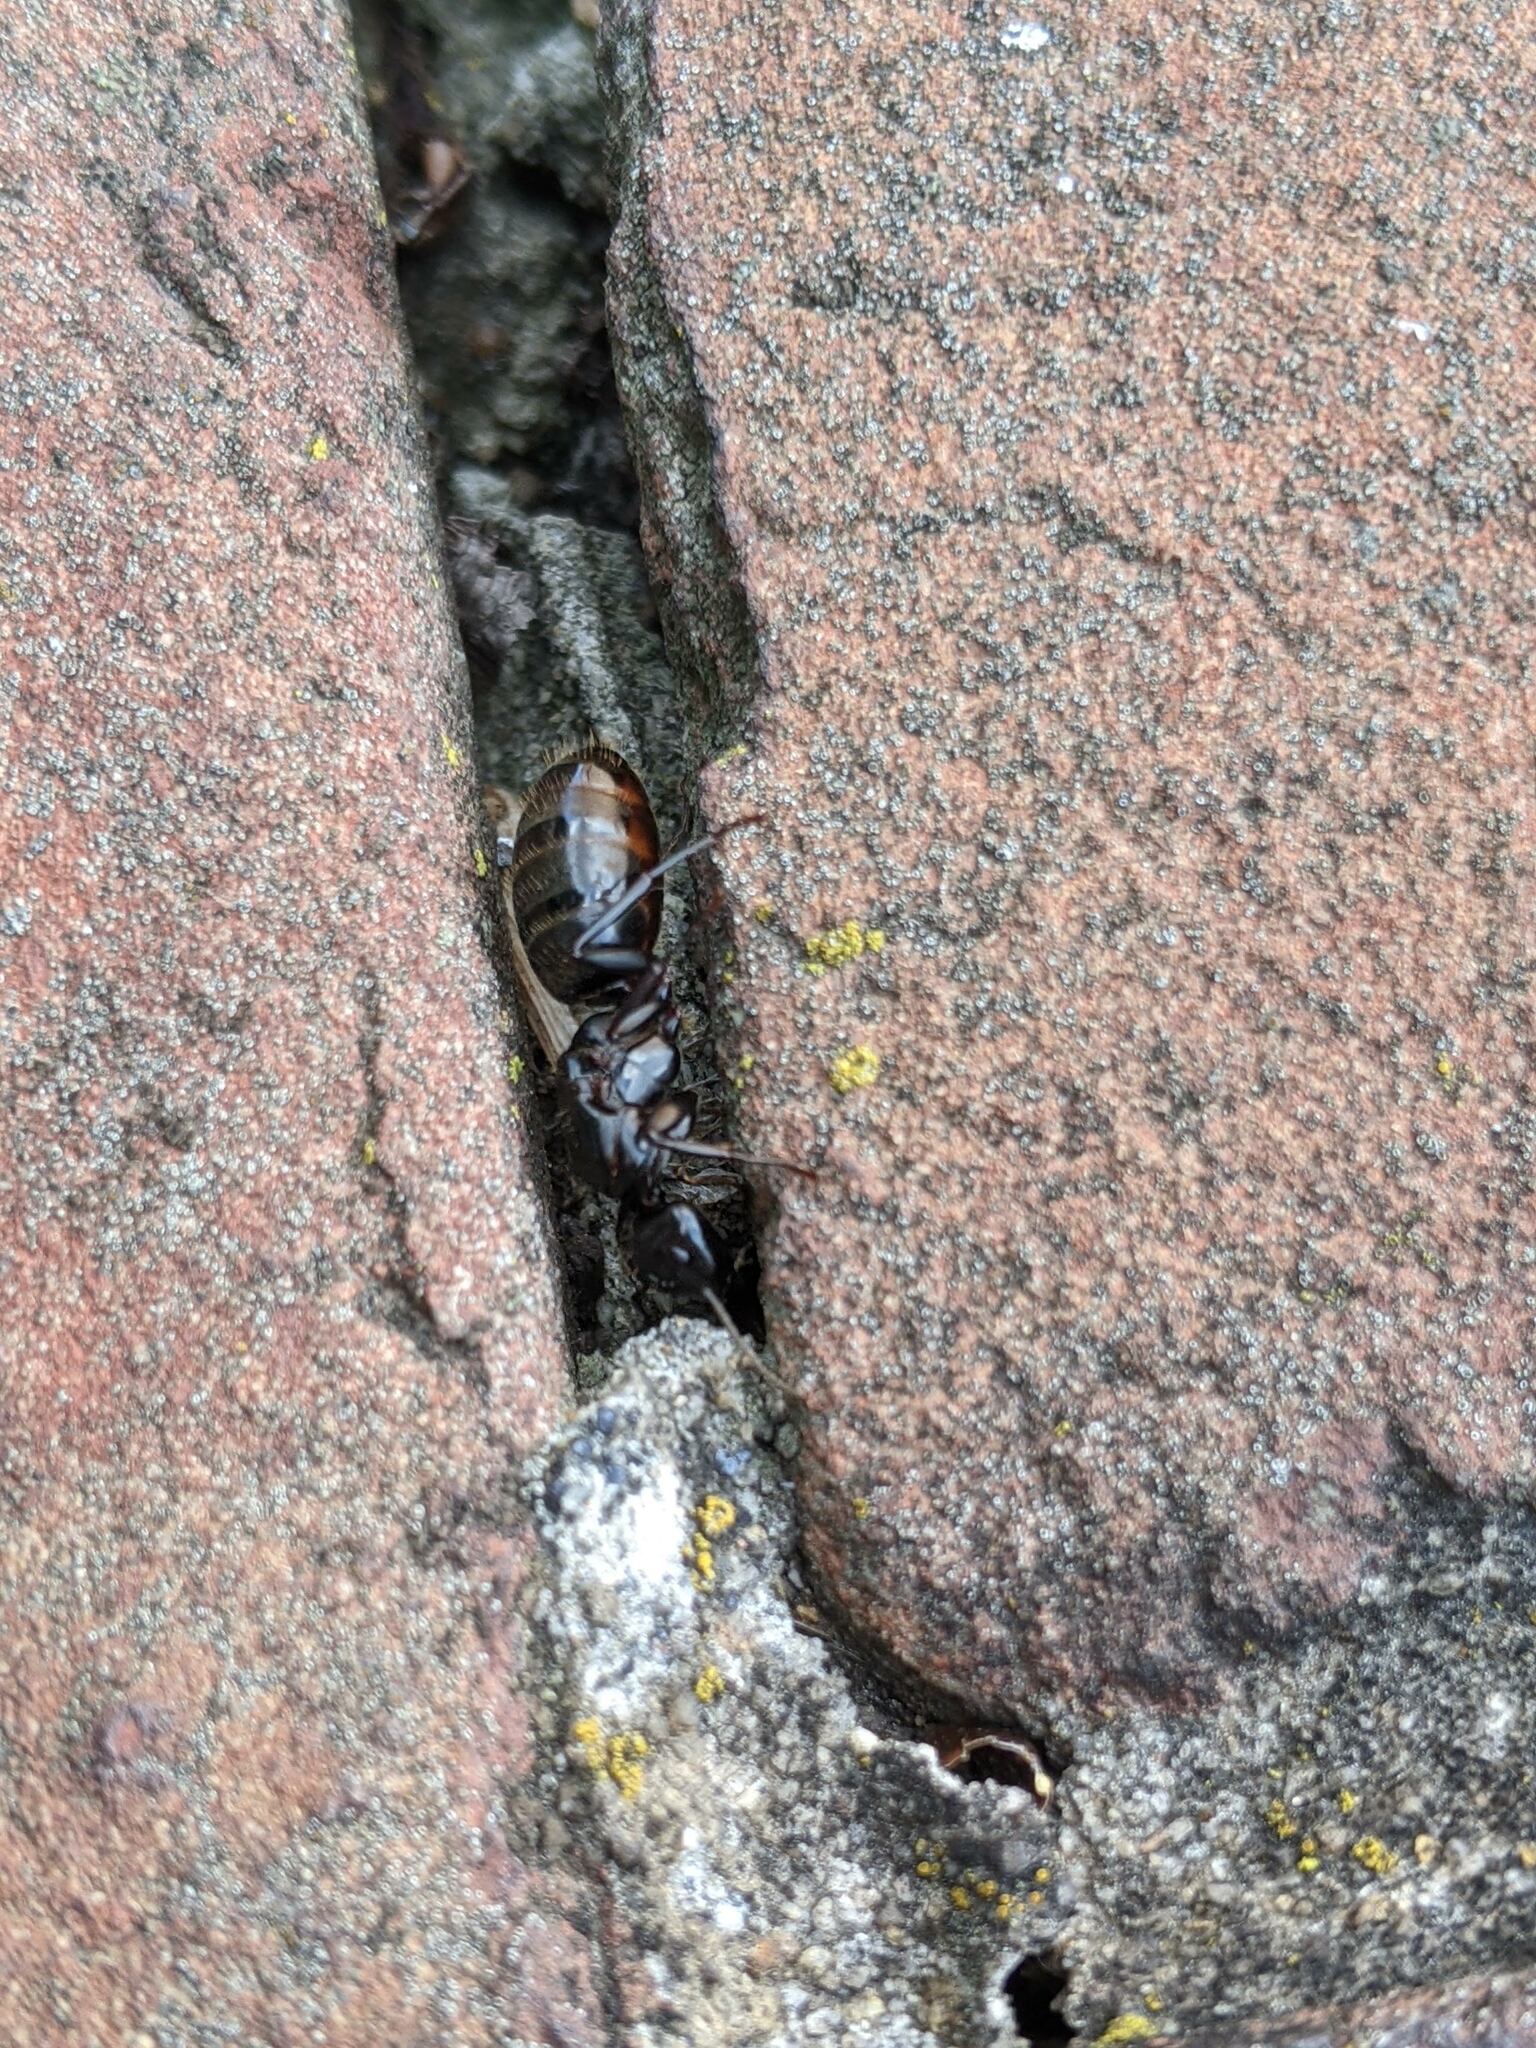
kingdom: Animalia
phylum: Arthropoda
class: Insecta
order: Hymenoptera
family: Formicidae
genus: Camponotus
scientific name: Camponotus pennsylvanicus
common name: Black carpenter ant
